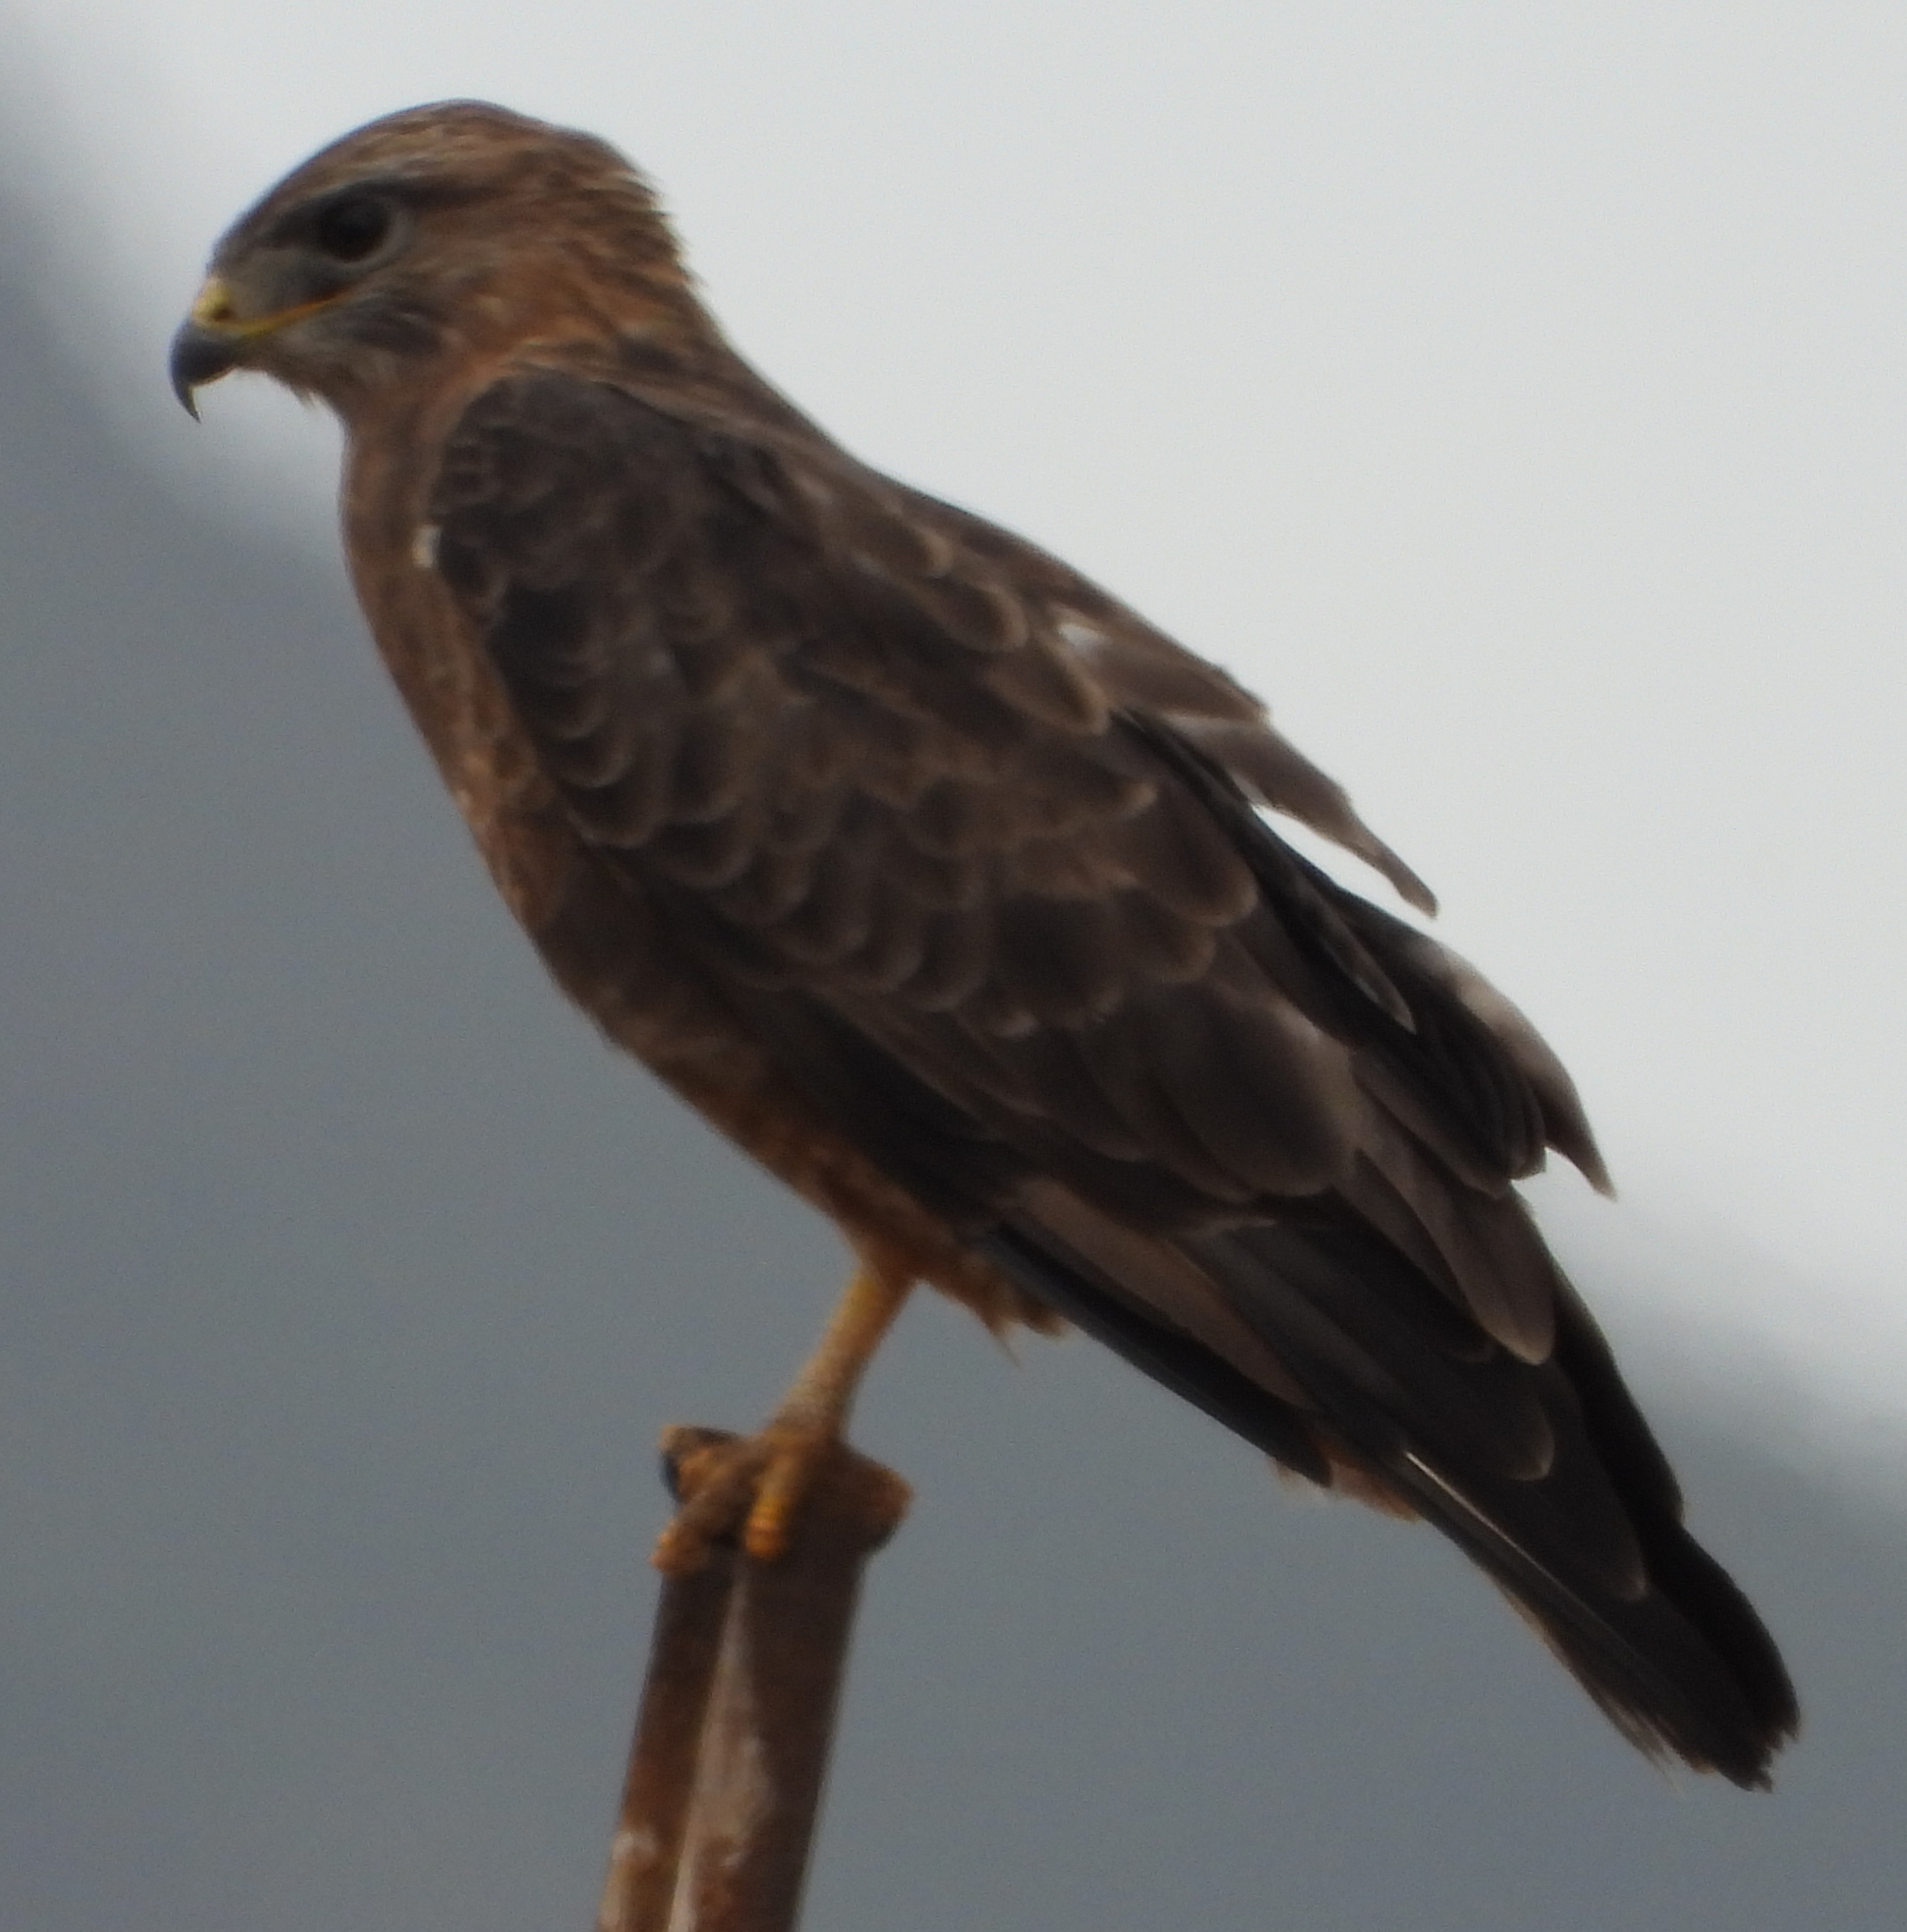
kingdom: Animalia
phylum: Chordata
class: Aves
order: Accipitriformes
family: Accipitridae
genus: Buteo
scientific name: Buteo buteo
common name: Common buzzard
